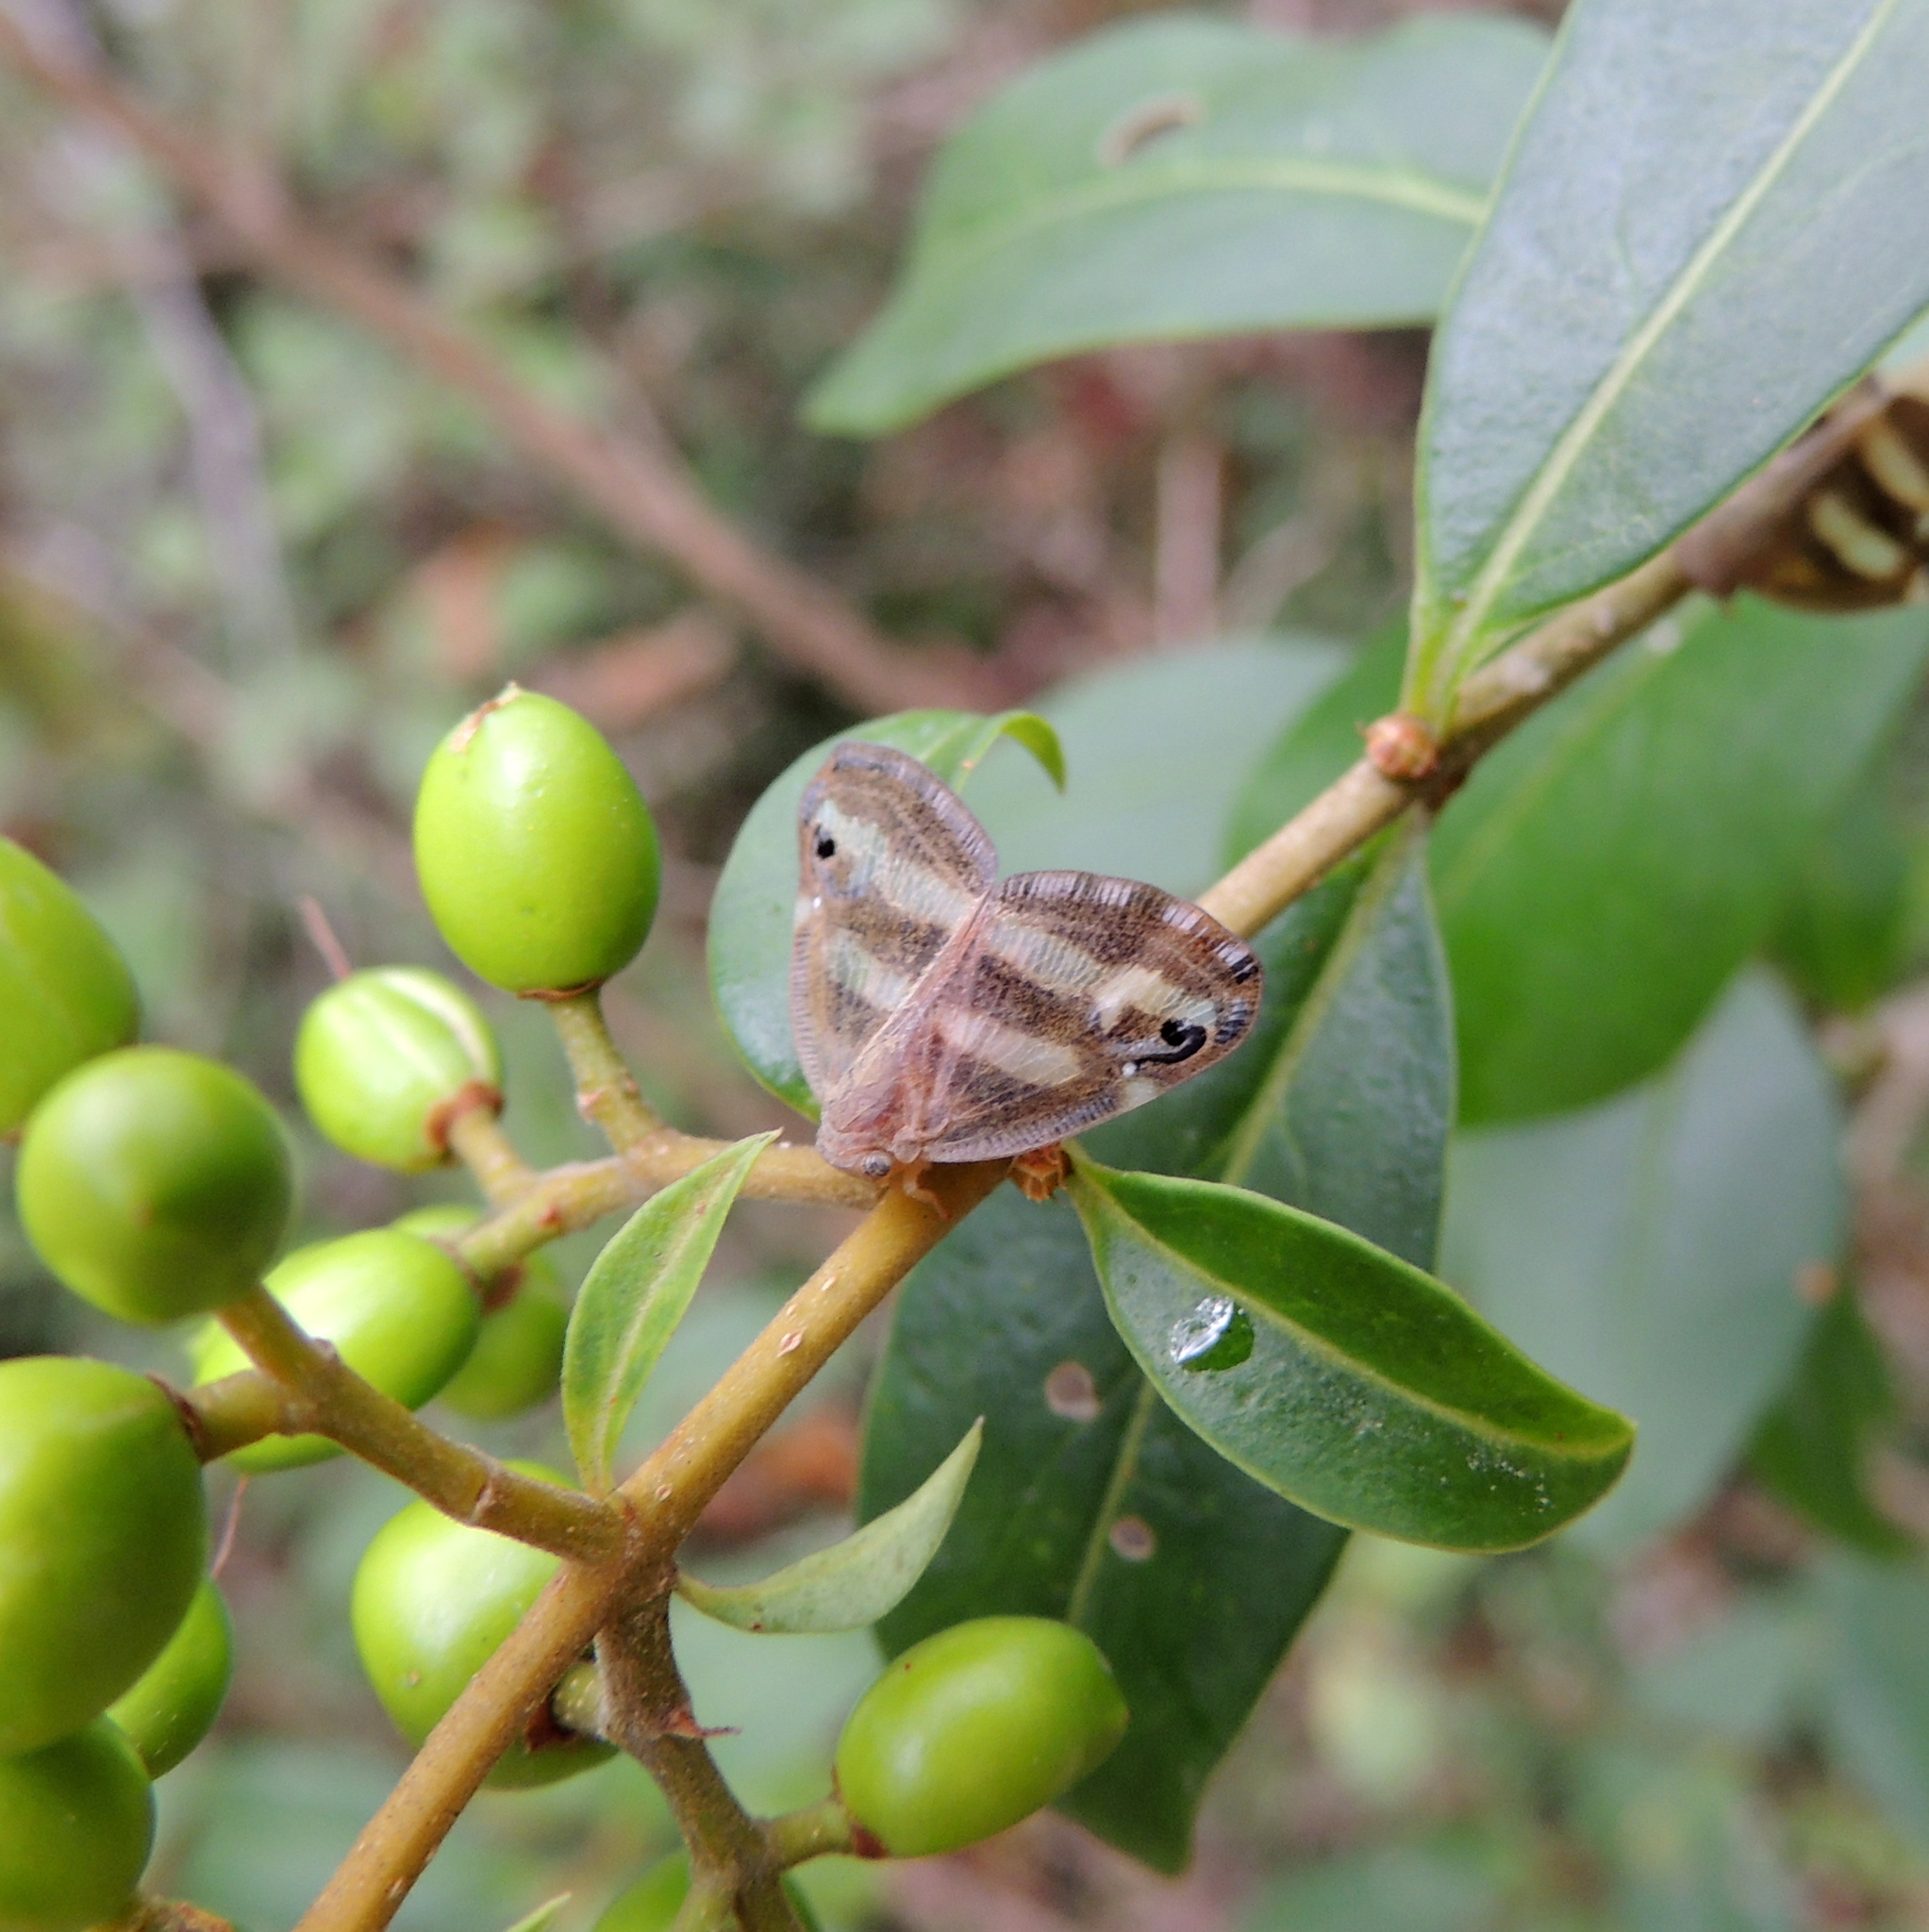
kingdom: Animalia
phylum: Arthropoda
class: Insecta
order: Hemiptera
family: Ricaniidae
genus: Orosanga
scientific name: Orosanga japonica
